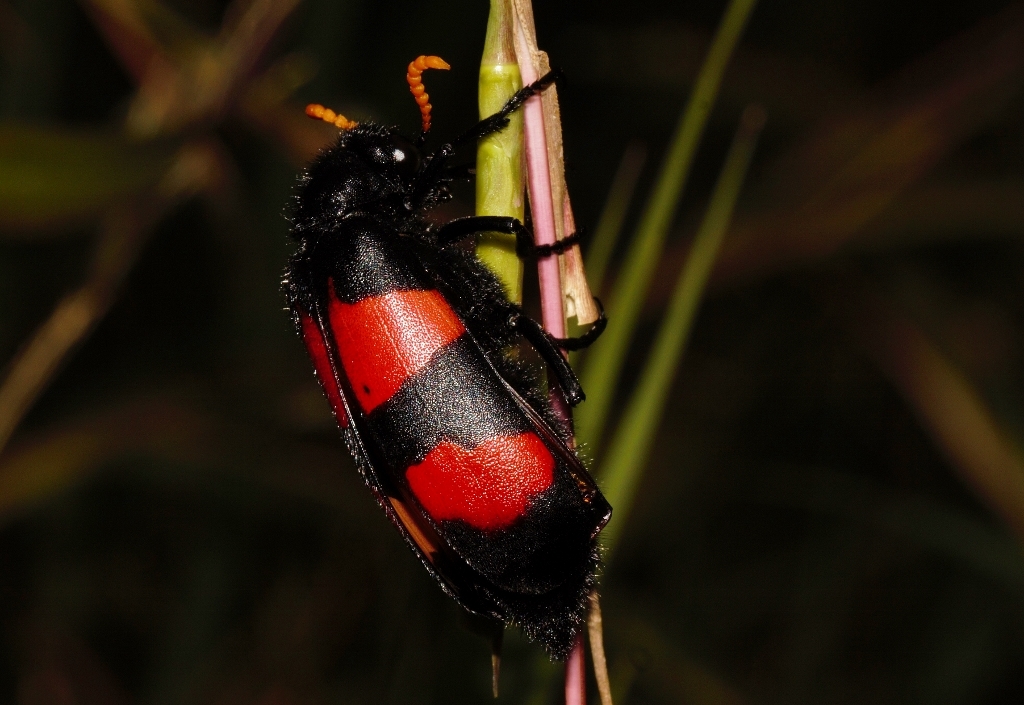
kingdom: Animalia
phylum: Arthropoda
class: Insecta
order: Coleoptera
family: Meloidae
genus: Hycleus
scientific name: Hycleus tekkensis
